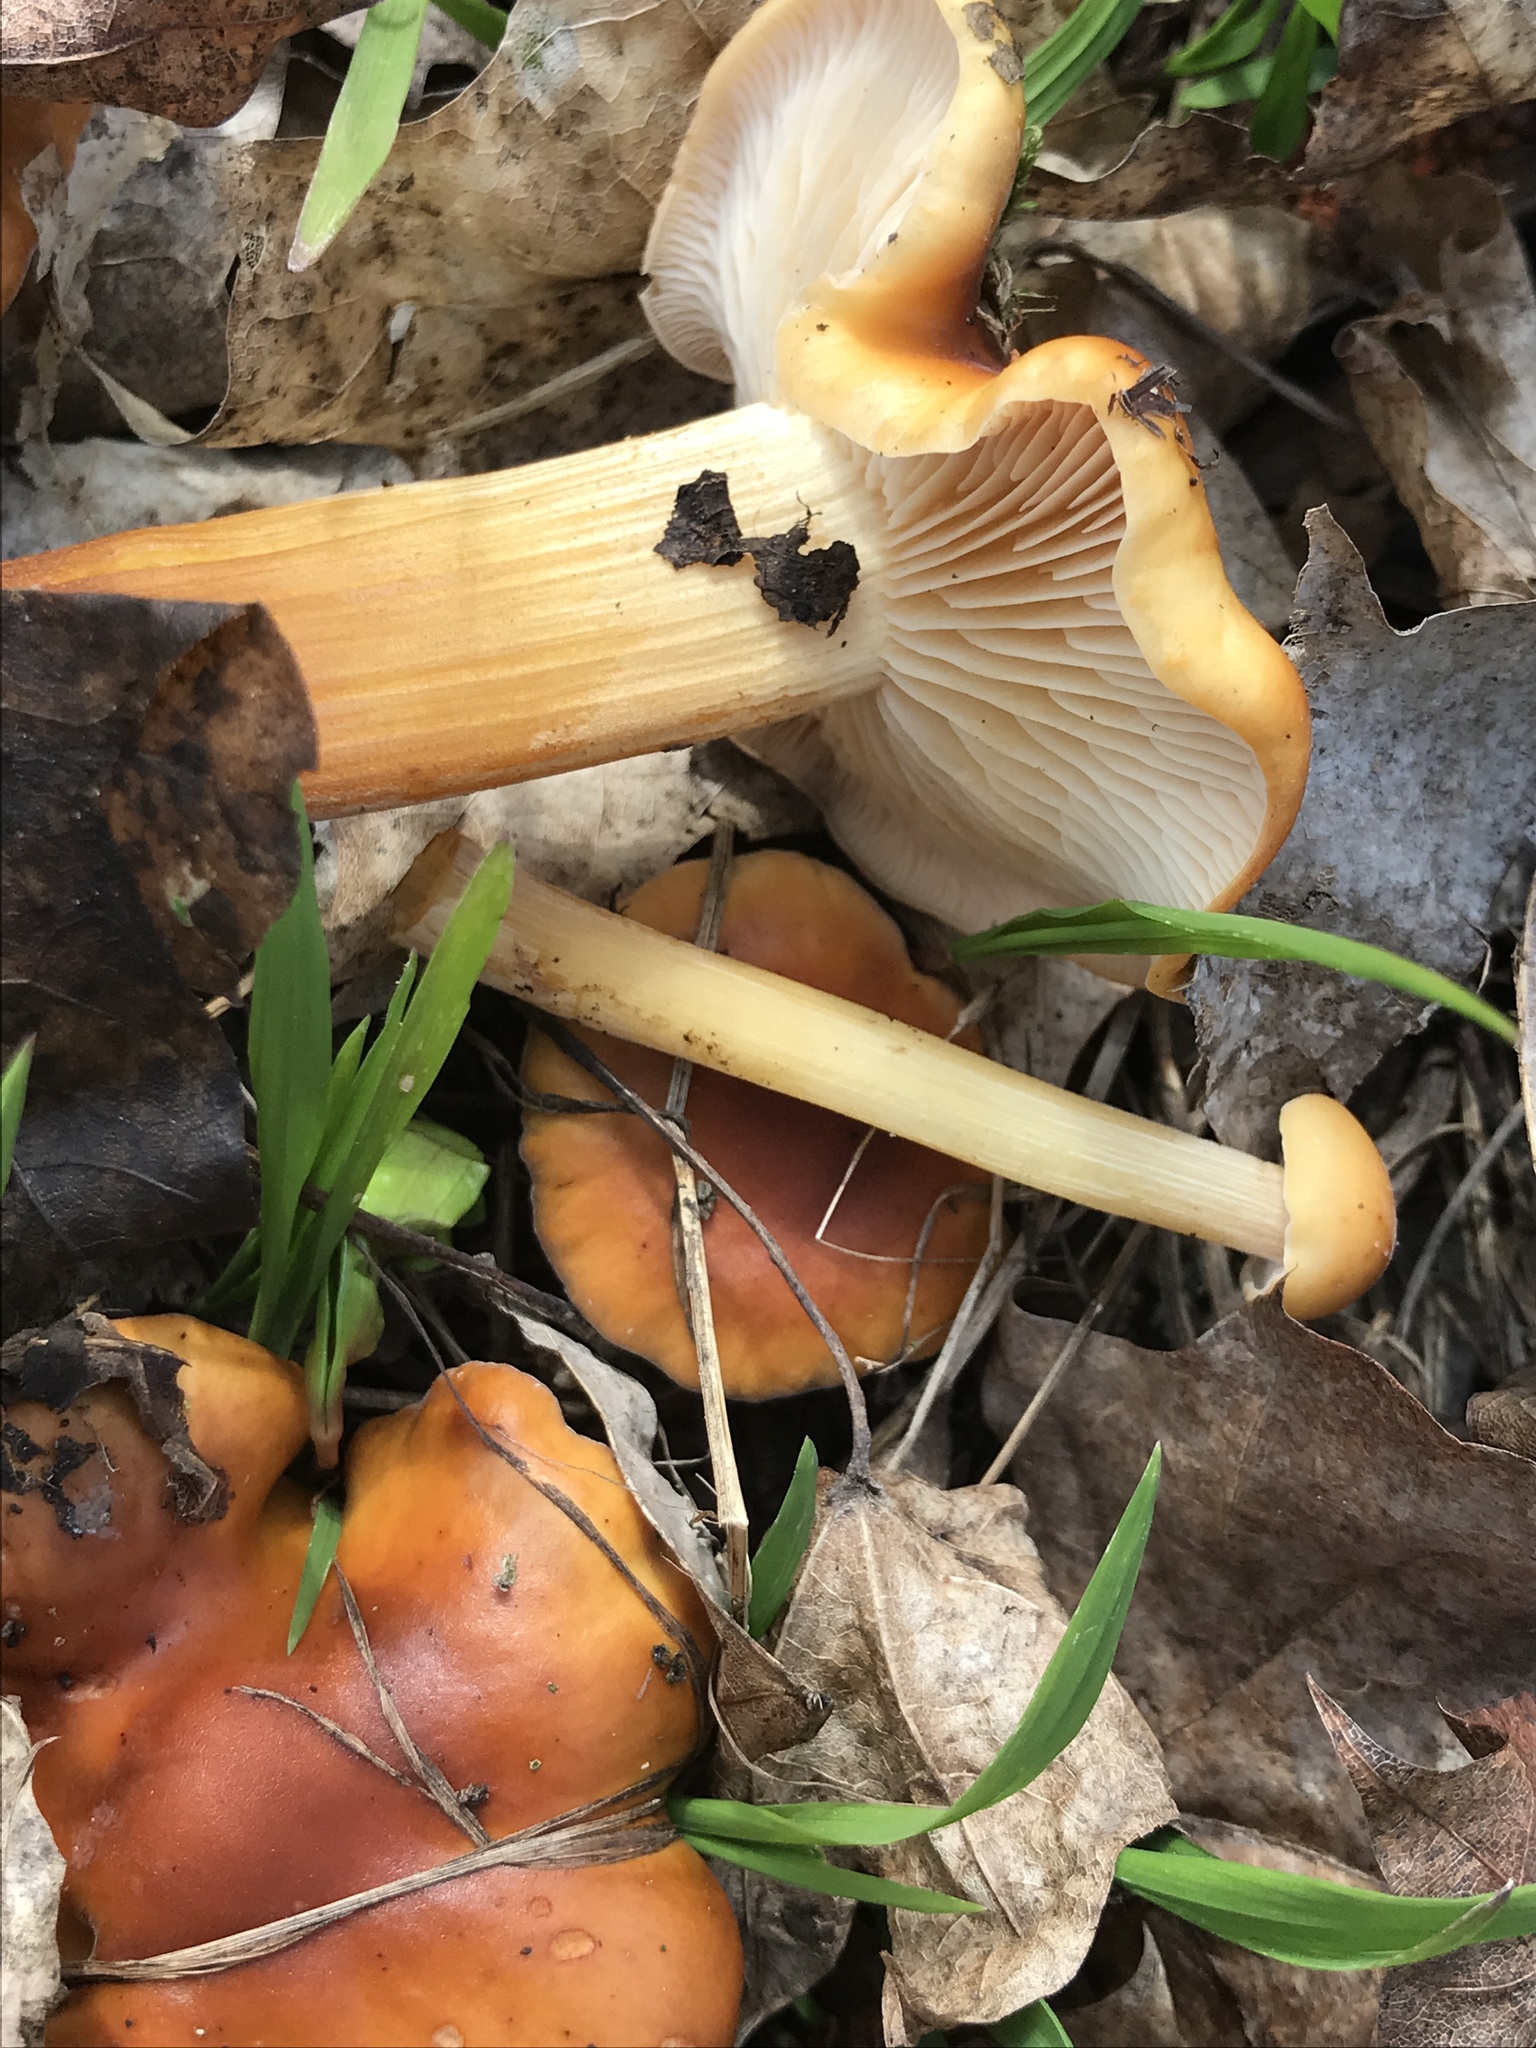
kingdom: Fungi
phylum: Basidiomycota
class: Agaricomycetes
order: Agaricales
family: Physalacriaceae
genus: Flammulina
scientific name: Flammulina
